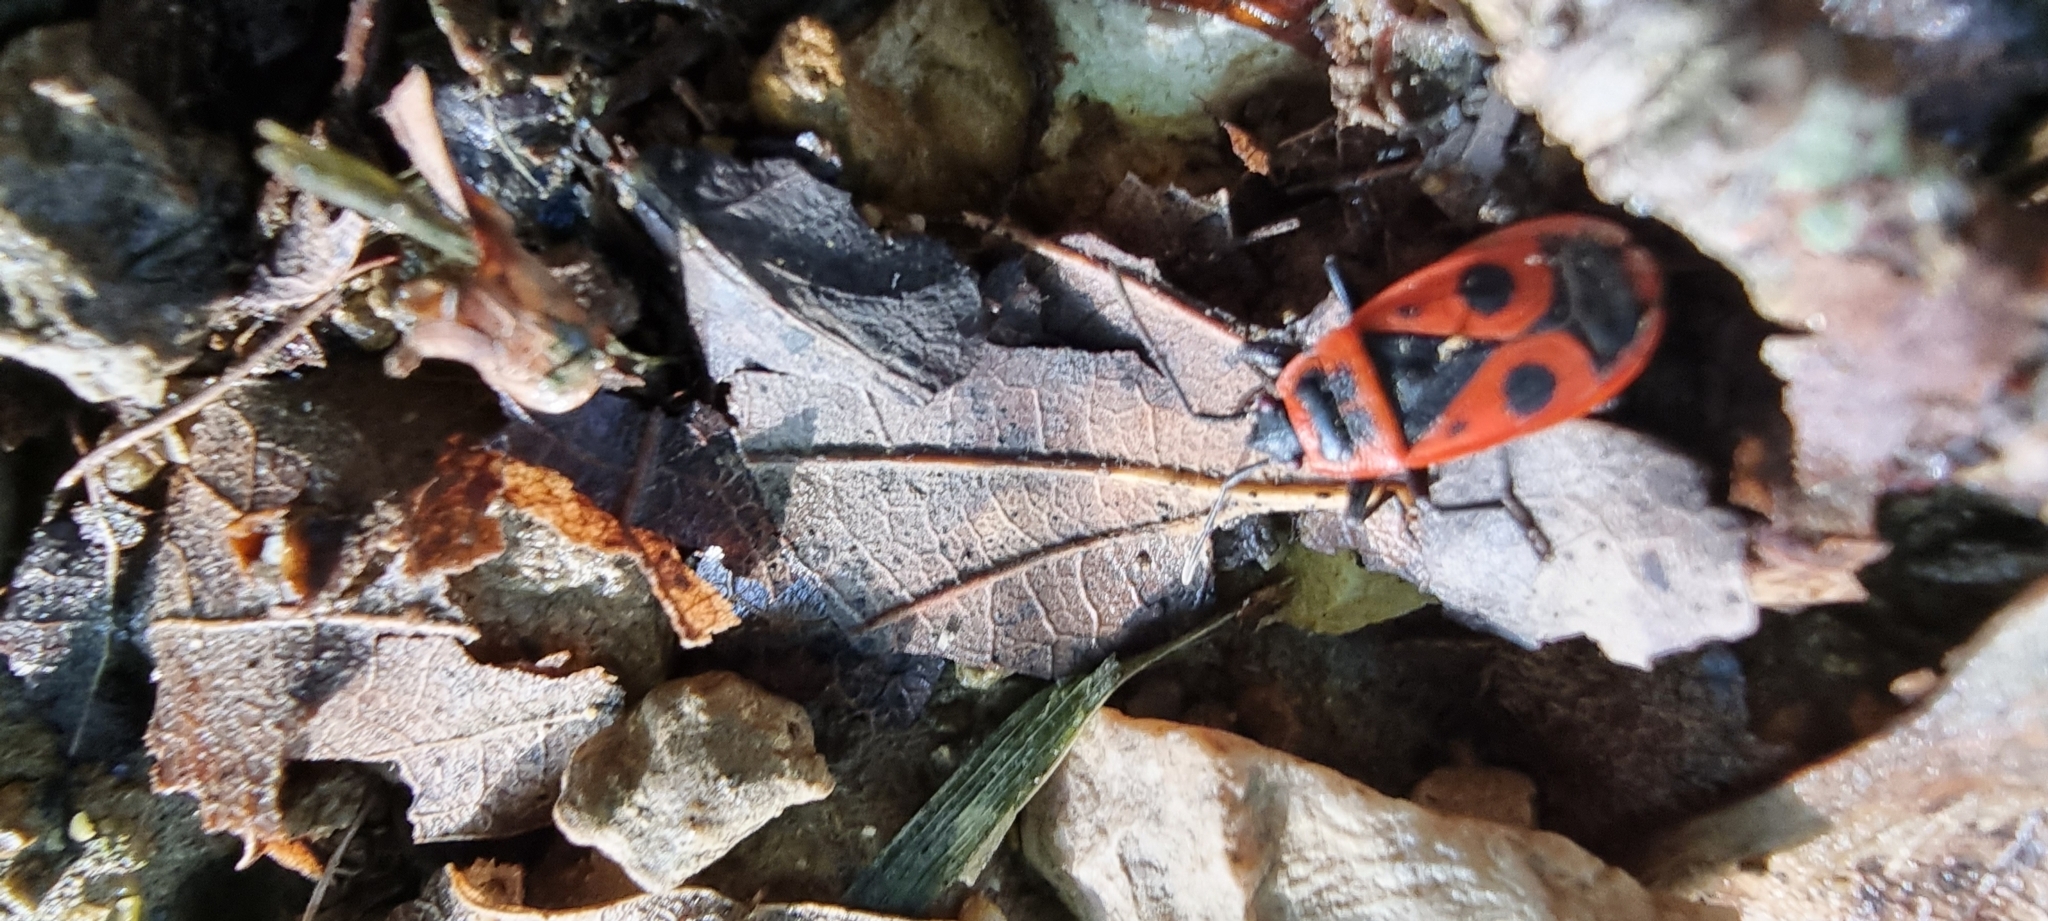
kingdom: Animalia
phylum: Arthropoda
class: Insecta
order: Hemiptera
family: Pyrrhocoridae
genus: Pyrrhocoris
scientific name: Pyrrhocoris apterus
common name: Firebug
